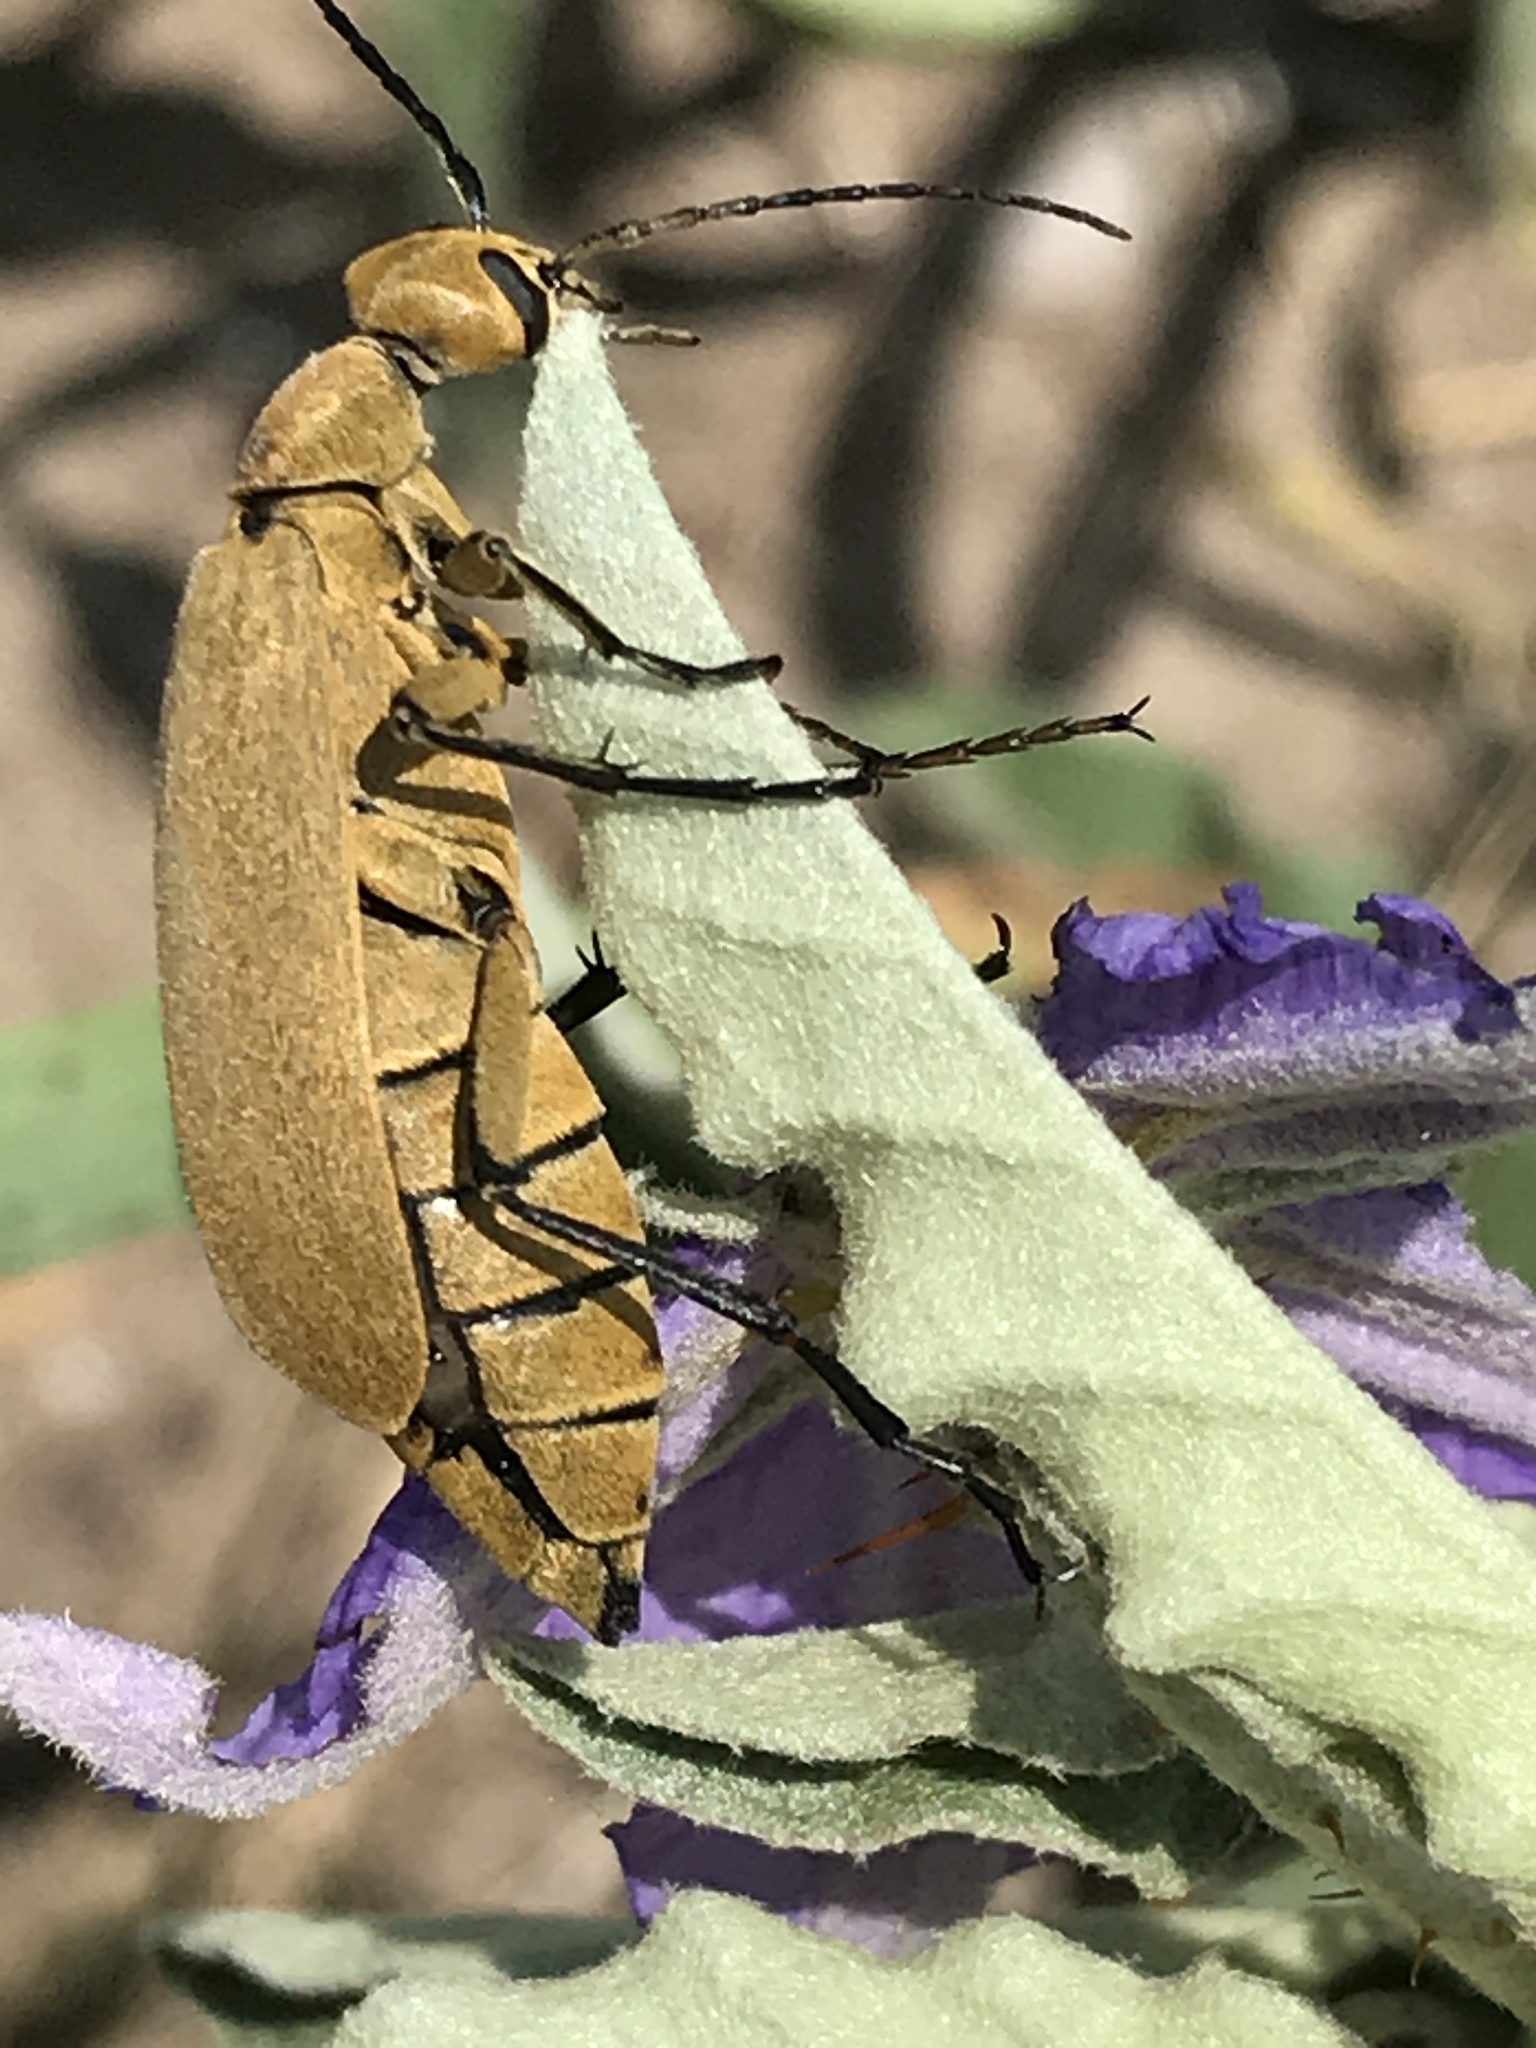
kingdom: Animalia
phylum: Arthropoda
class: Insecta
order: Coleoptera
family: Meloidae
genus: Epicauta
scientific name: Epicauta immaculata
